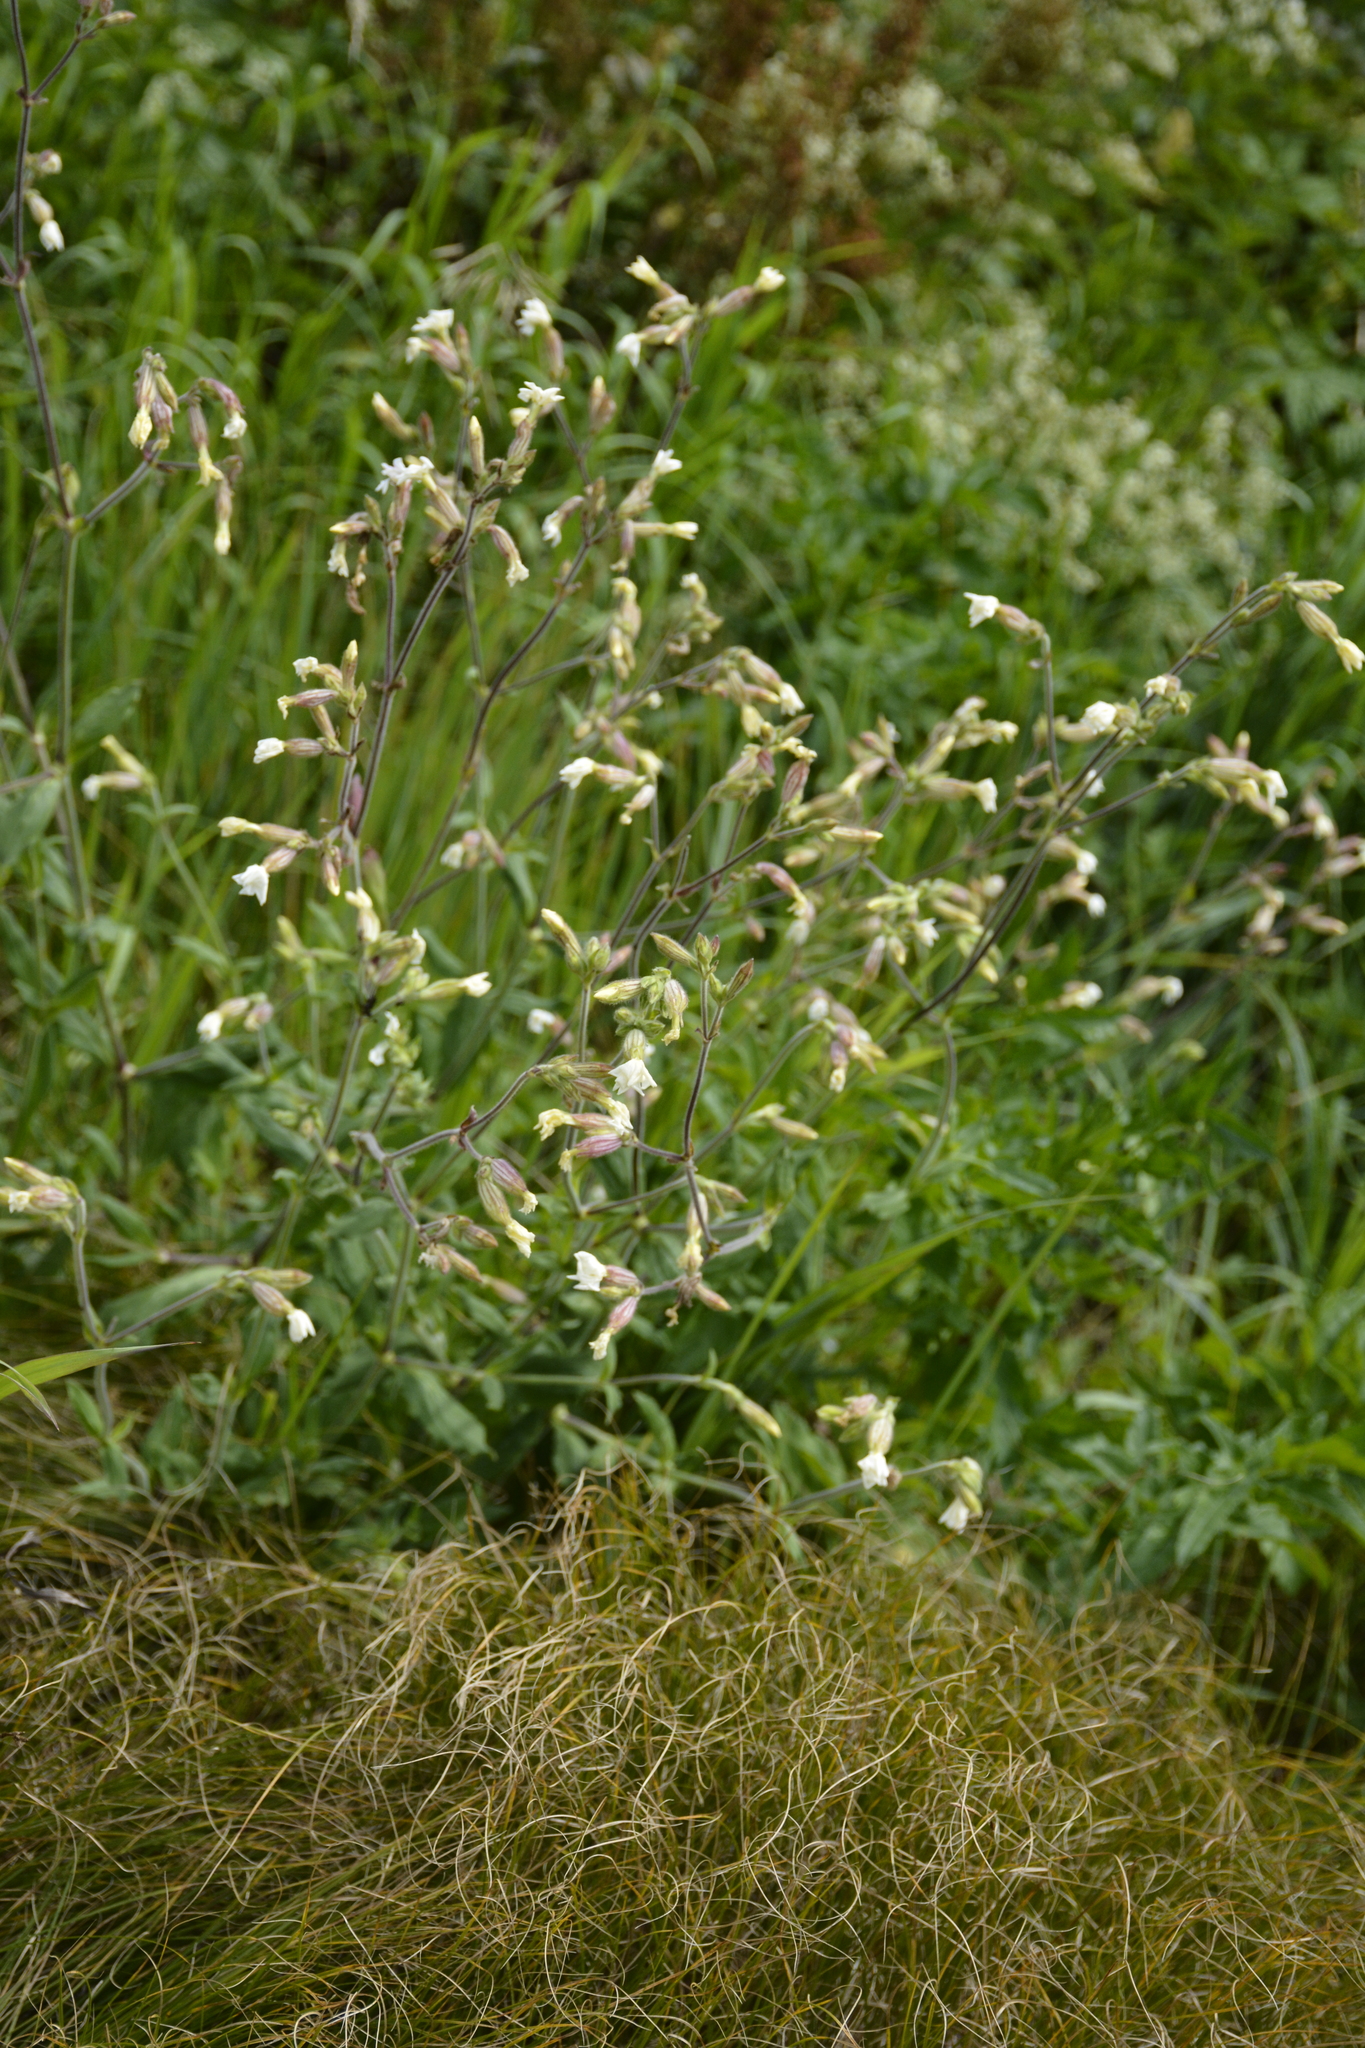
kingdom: Plantae
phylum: Tracheophyta
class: Magnoliopsida
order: Caryophyllales
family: Caryophyllaceae
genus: Silene
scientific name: Silene nutans
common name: Nottingham catchfly
